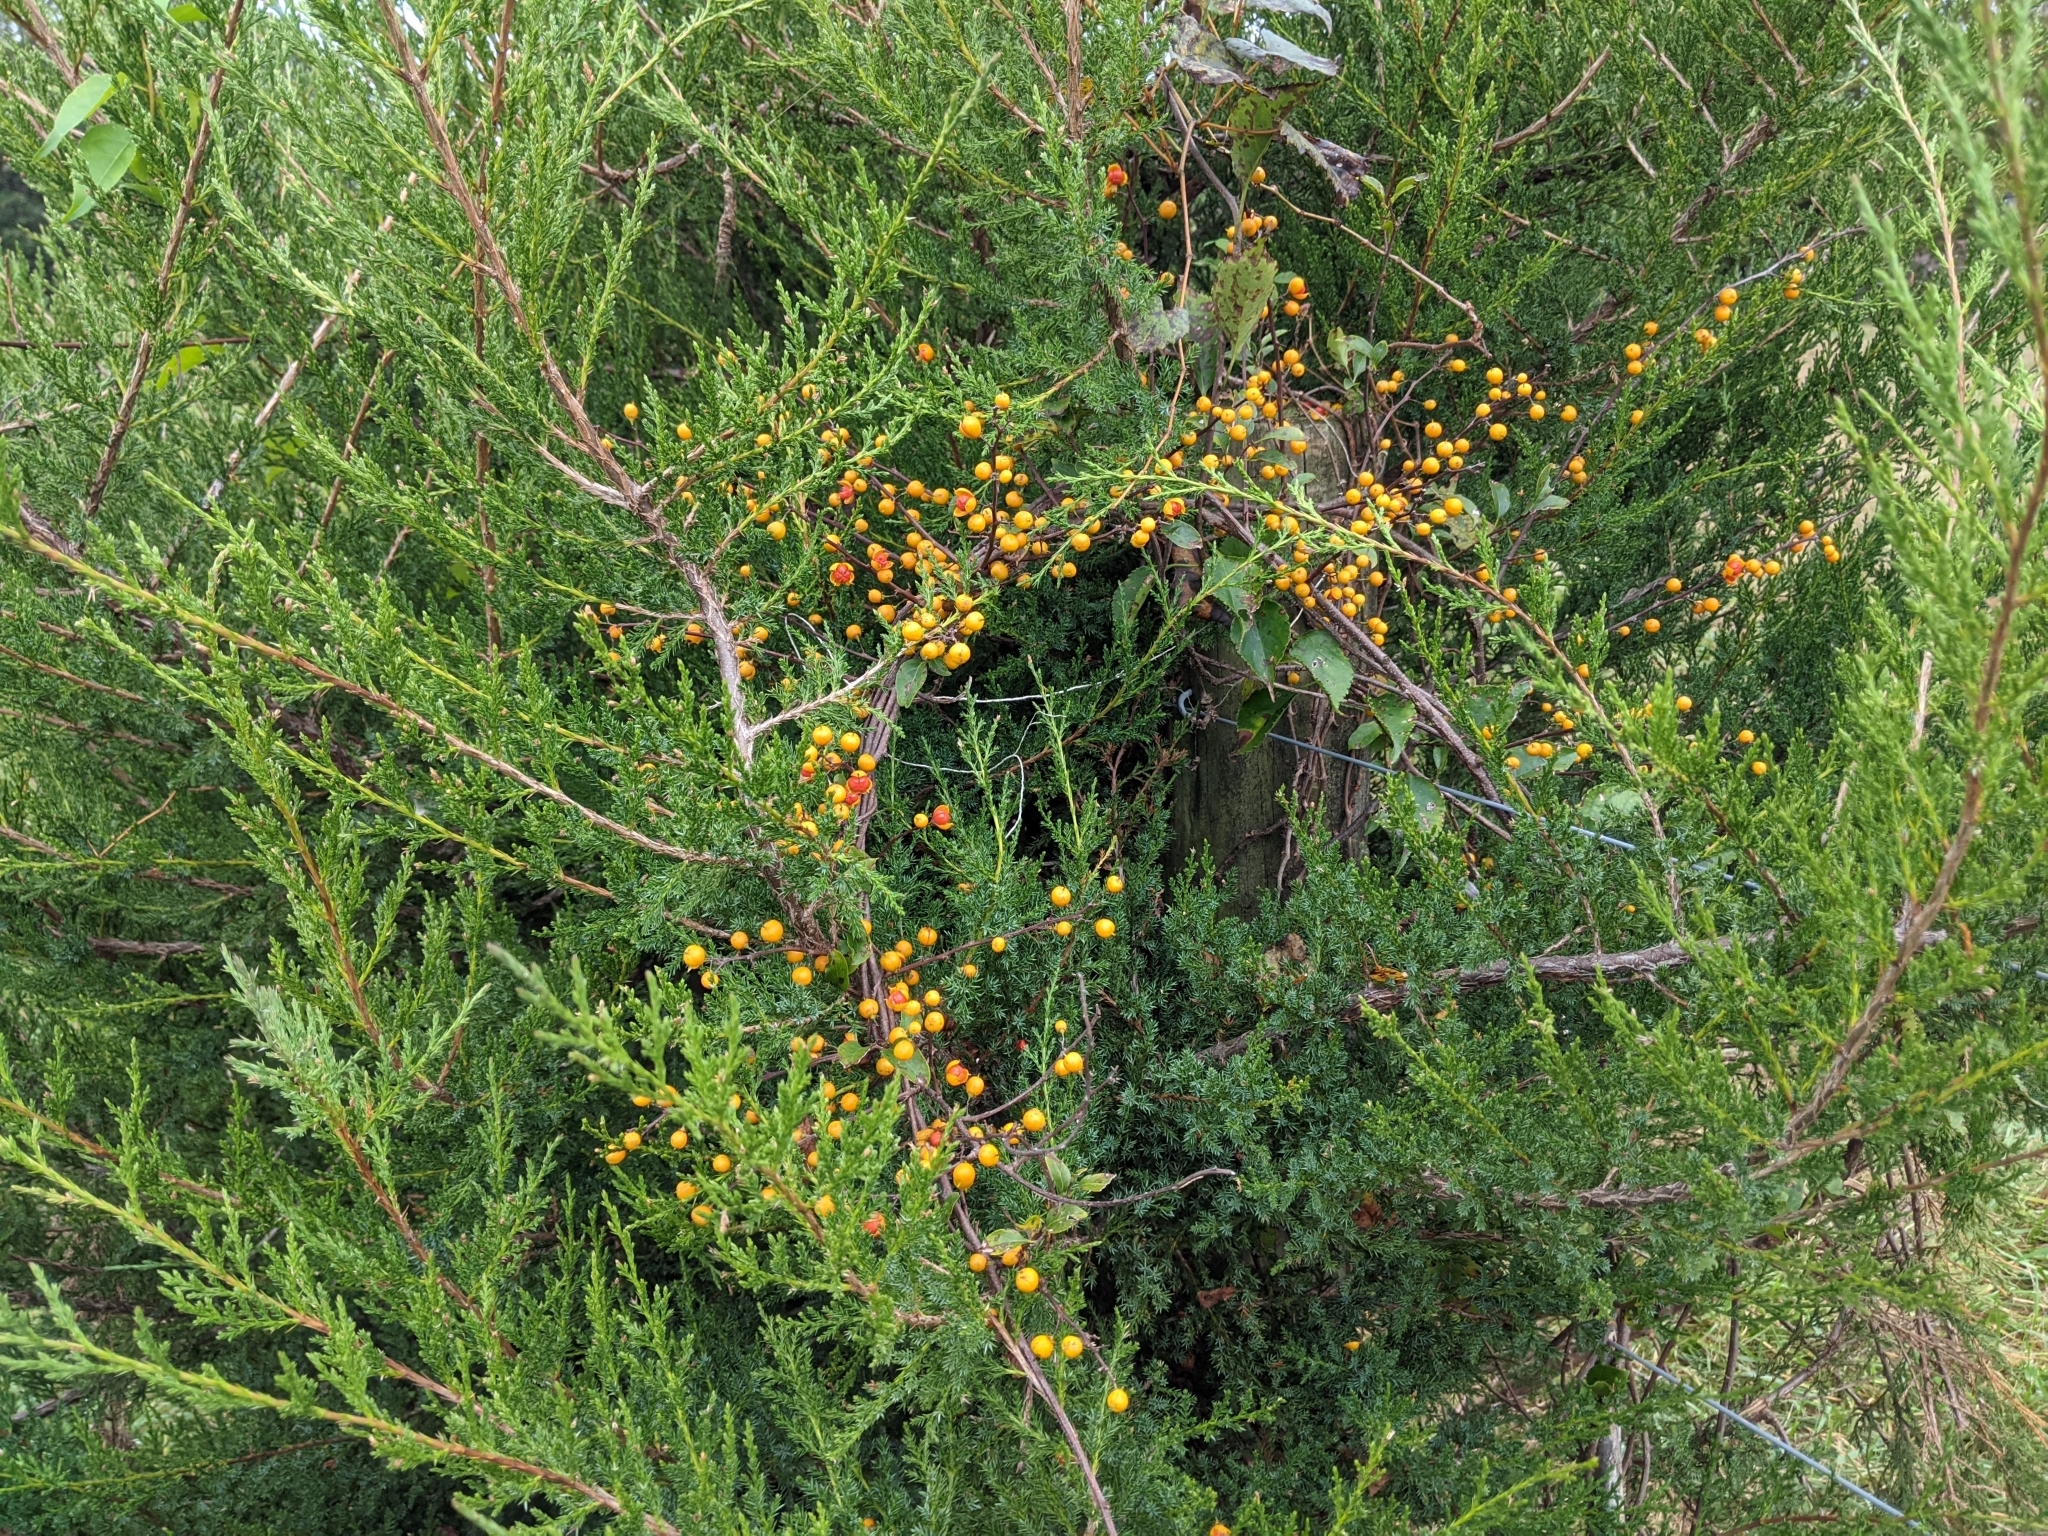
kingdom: Plantae
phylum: Tracheophyta
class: Magnoliopsida
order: Celastrales
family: Celastraceae
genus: Celastrus
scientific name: Celastrus orbiculatus
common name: Oriental bittersweet
